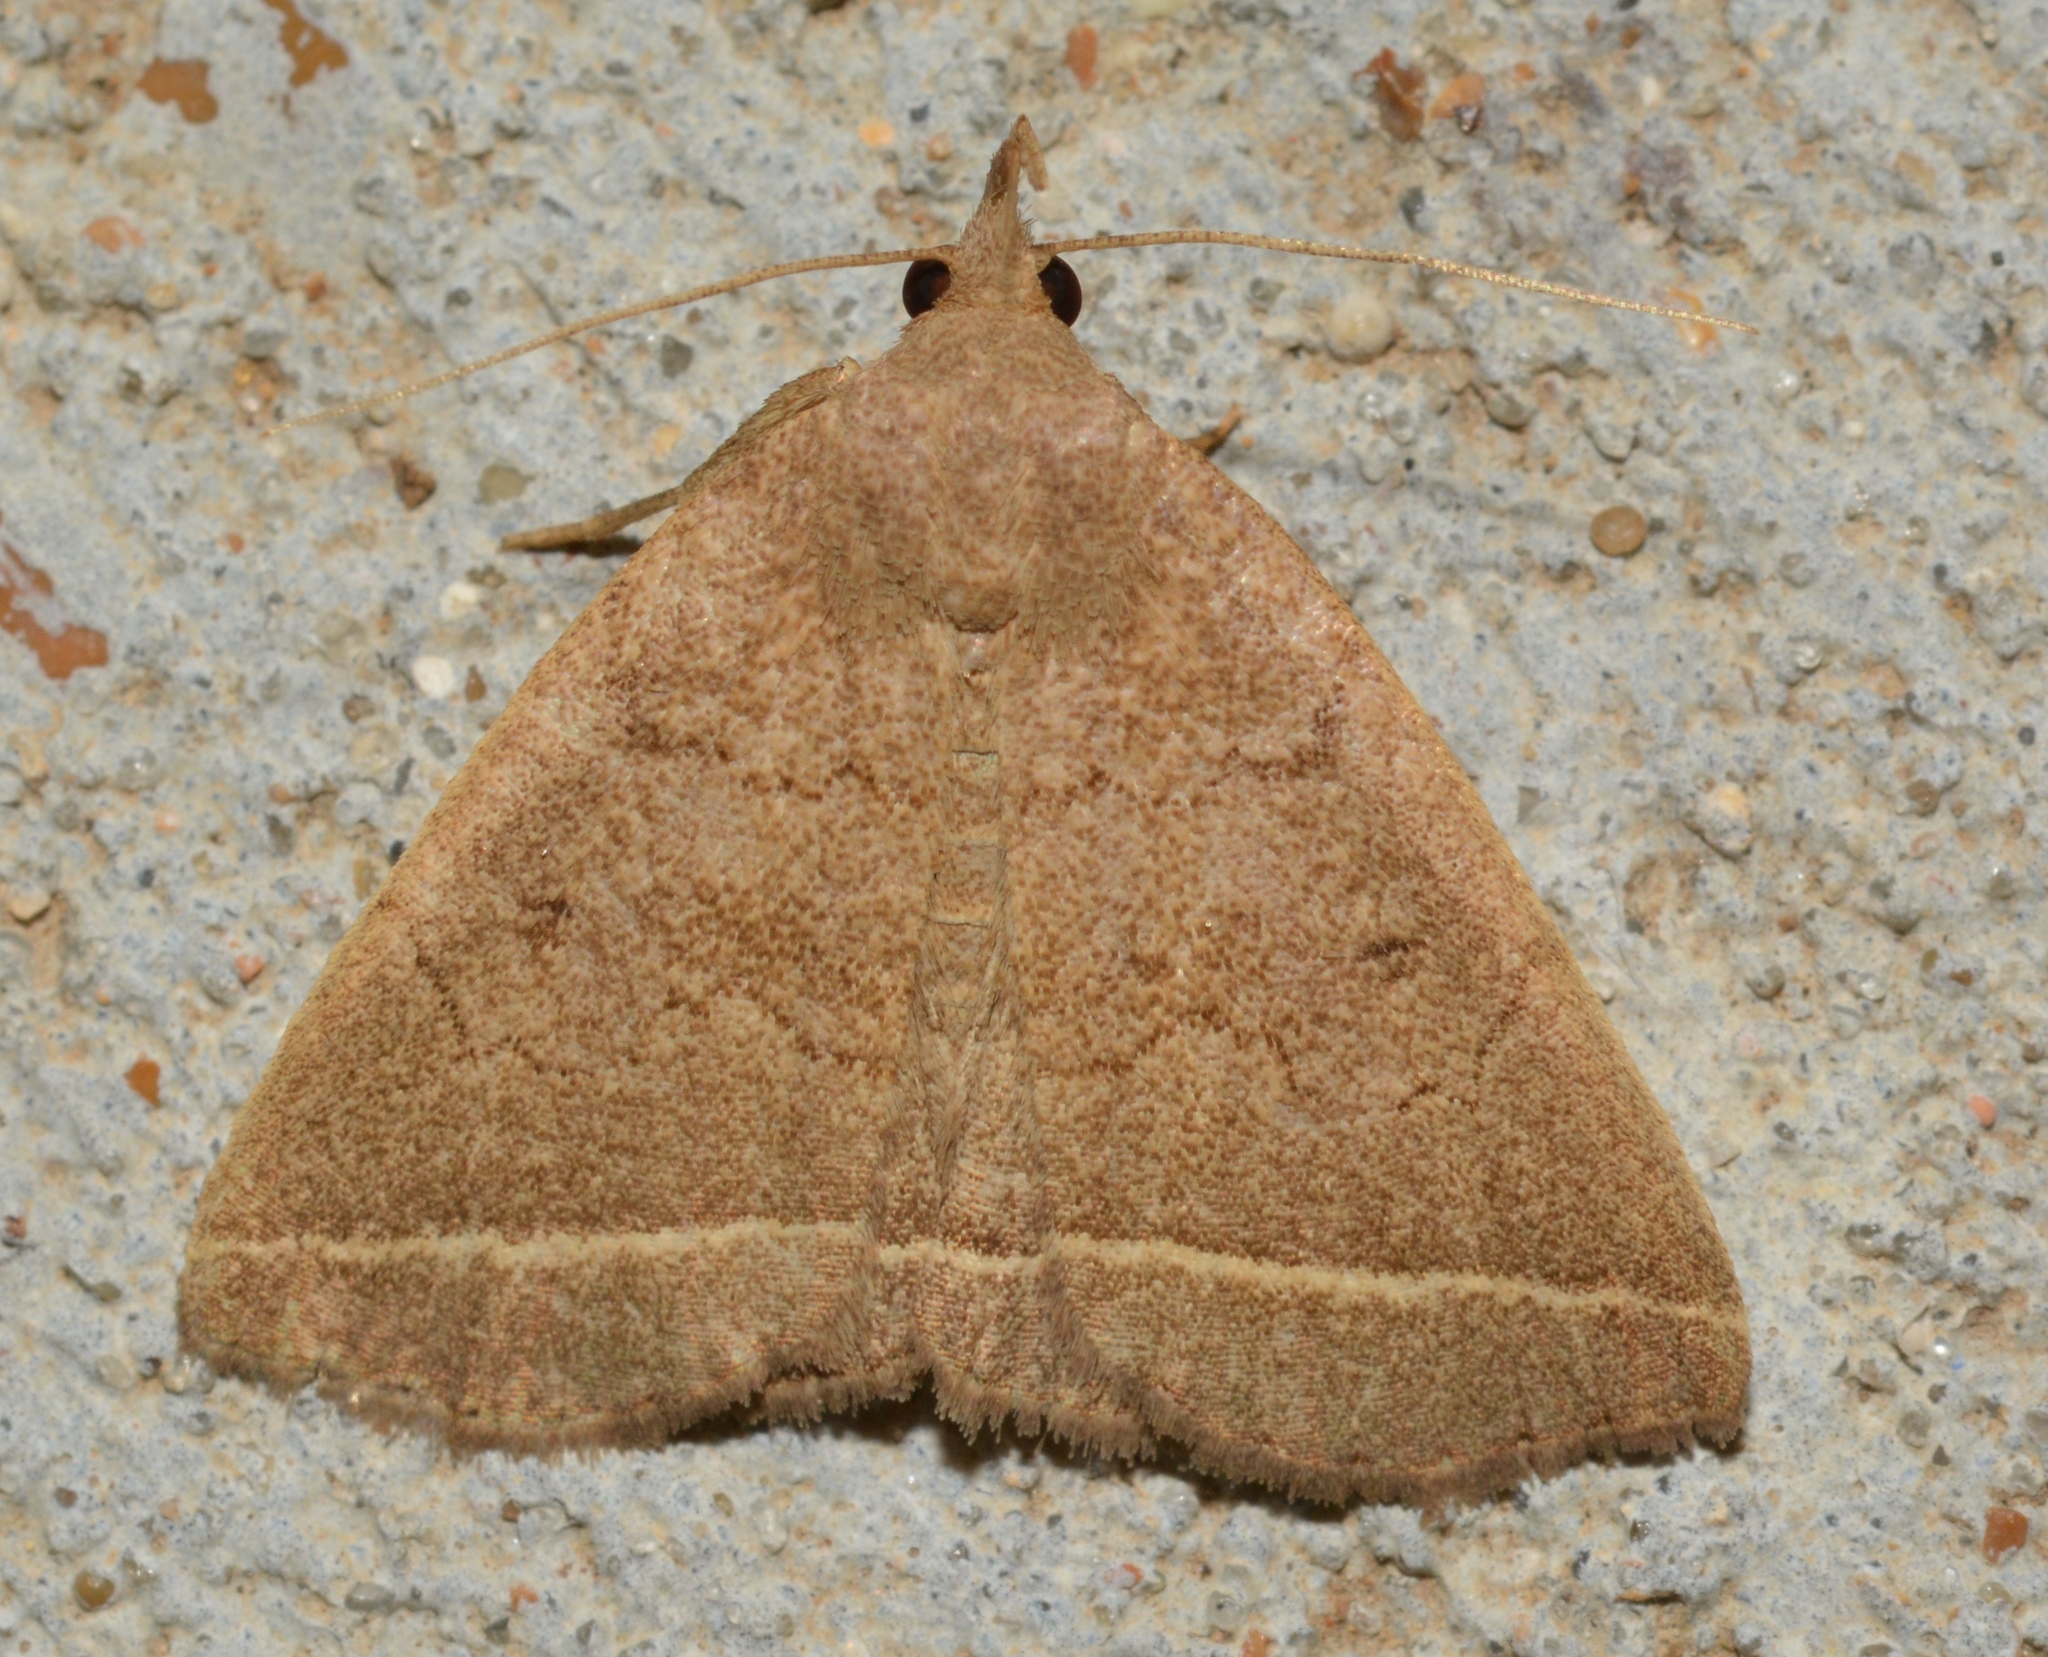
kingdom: Animalia
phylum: Arthropoda
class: Insecta
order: Lepidoptera
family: Erebidae
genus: Zanclognatha
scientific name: Zanclognatha marcidilinea
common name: Yellowish fan-foot
